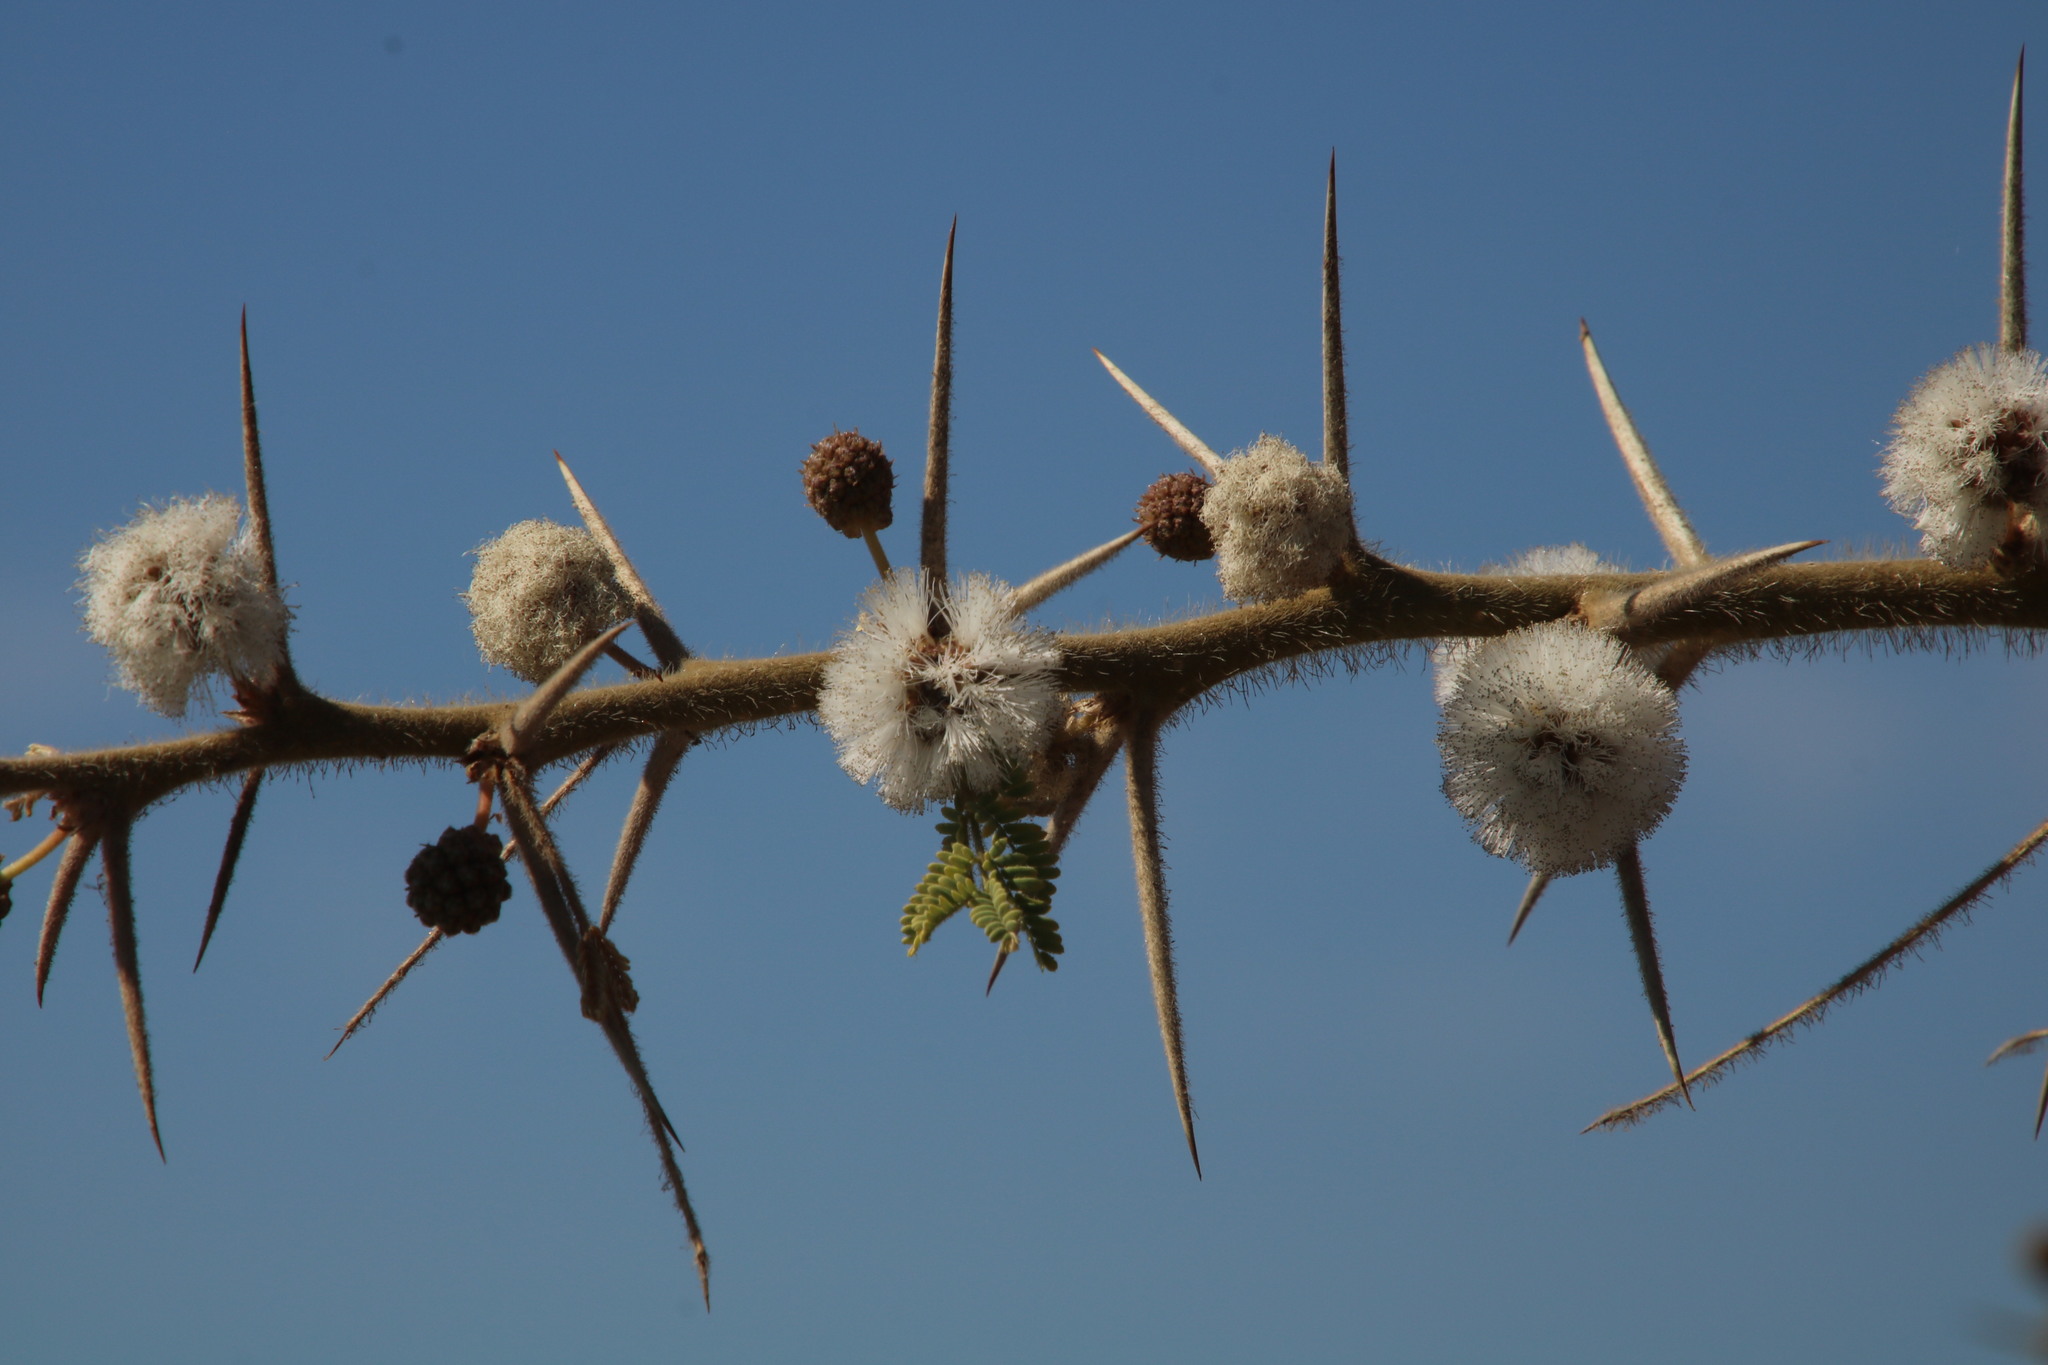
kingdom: Plantae
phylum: Tracheophyta
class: Magnoliopsida
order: Fabales
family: Fabaceae
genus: Vachellia
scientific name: Vachellia stuhlmannii
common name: Vlei thorn
